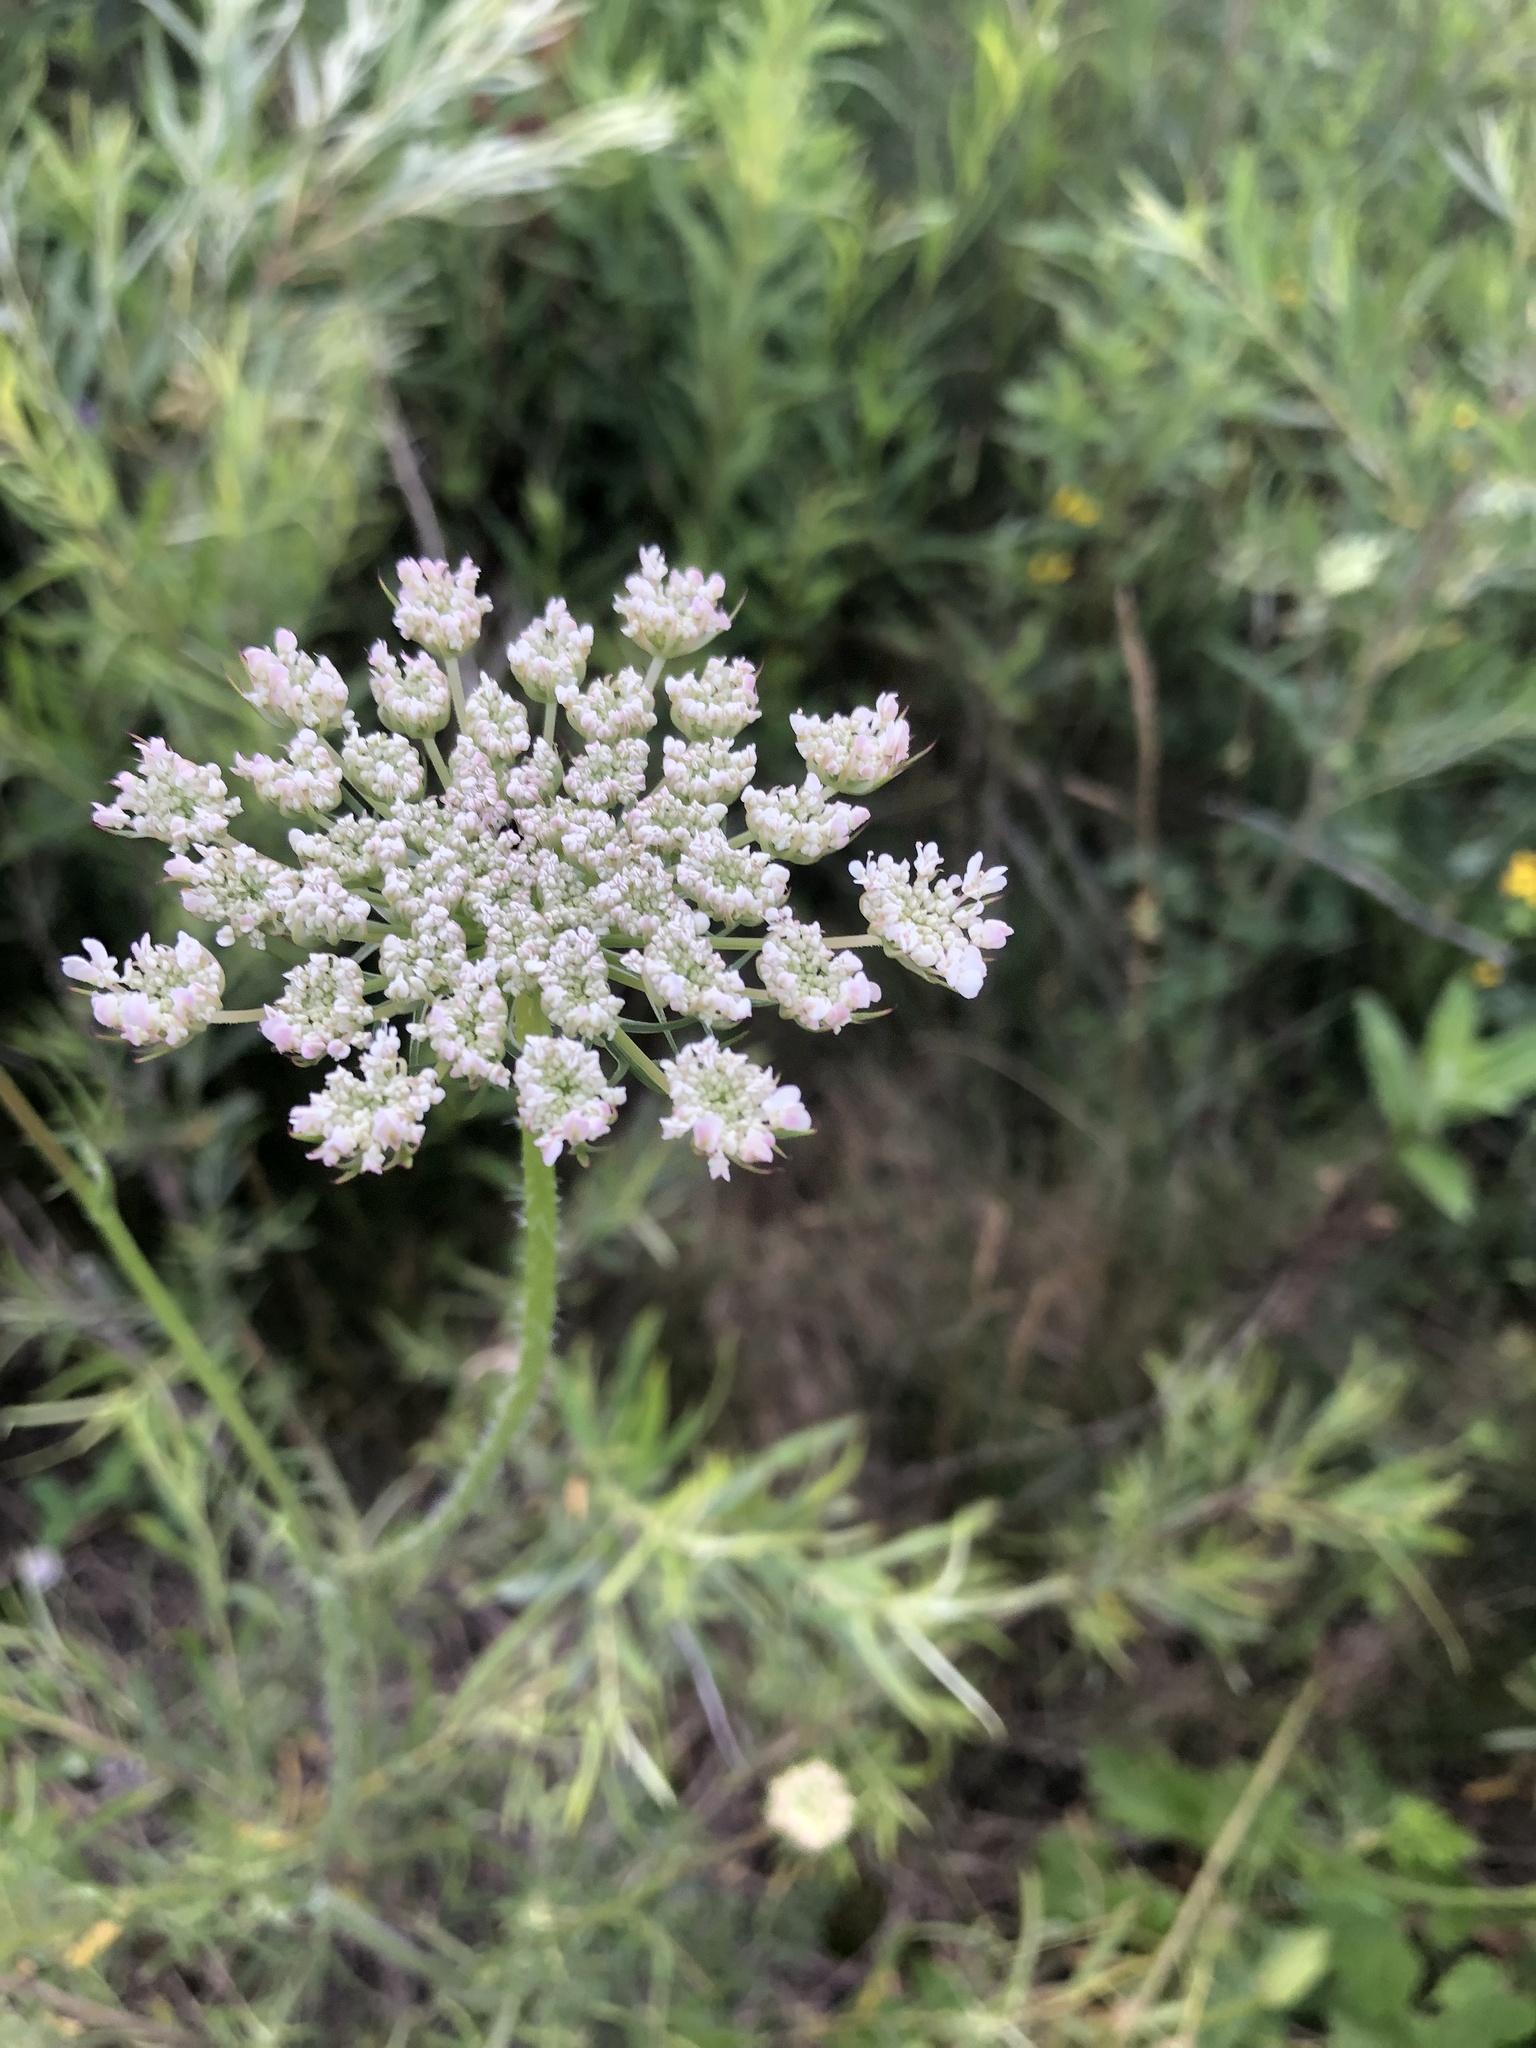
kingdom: Plantae
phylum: Tracheophyta
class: Magnoliopsida
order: Apiales
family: Apiaceae
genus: Daucus
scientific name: Daucus carota
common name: Wild carrot
